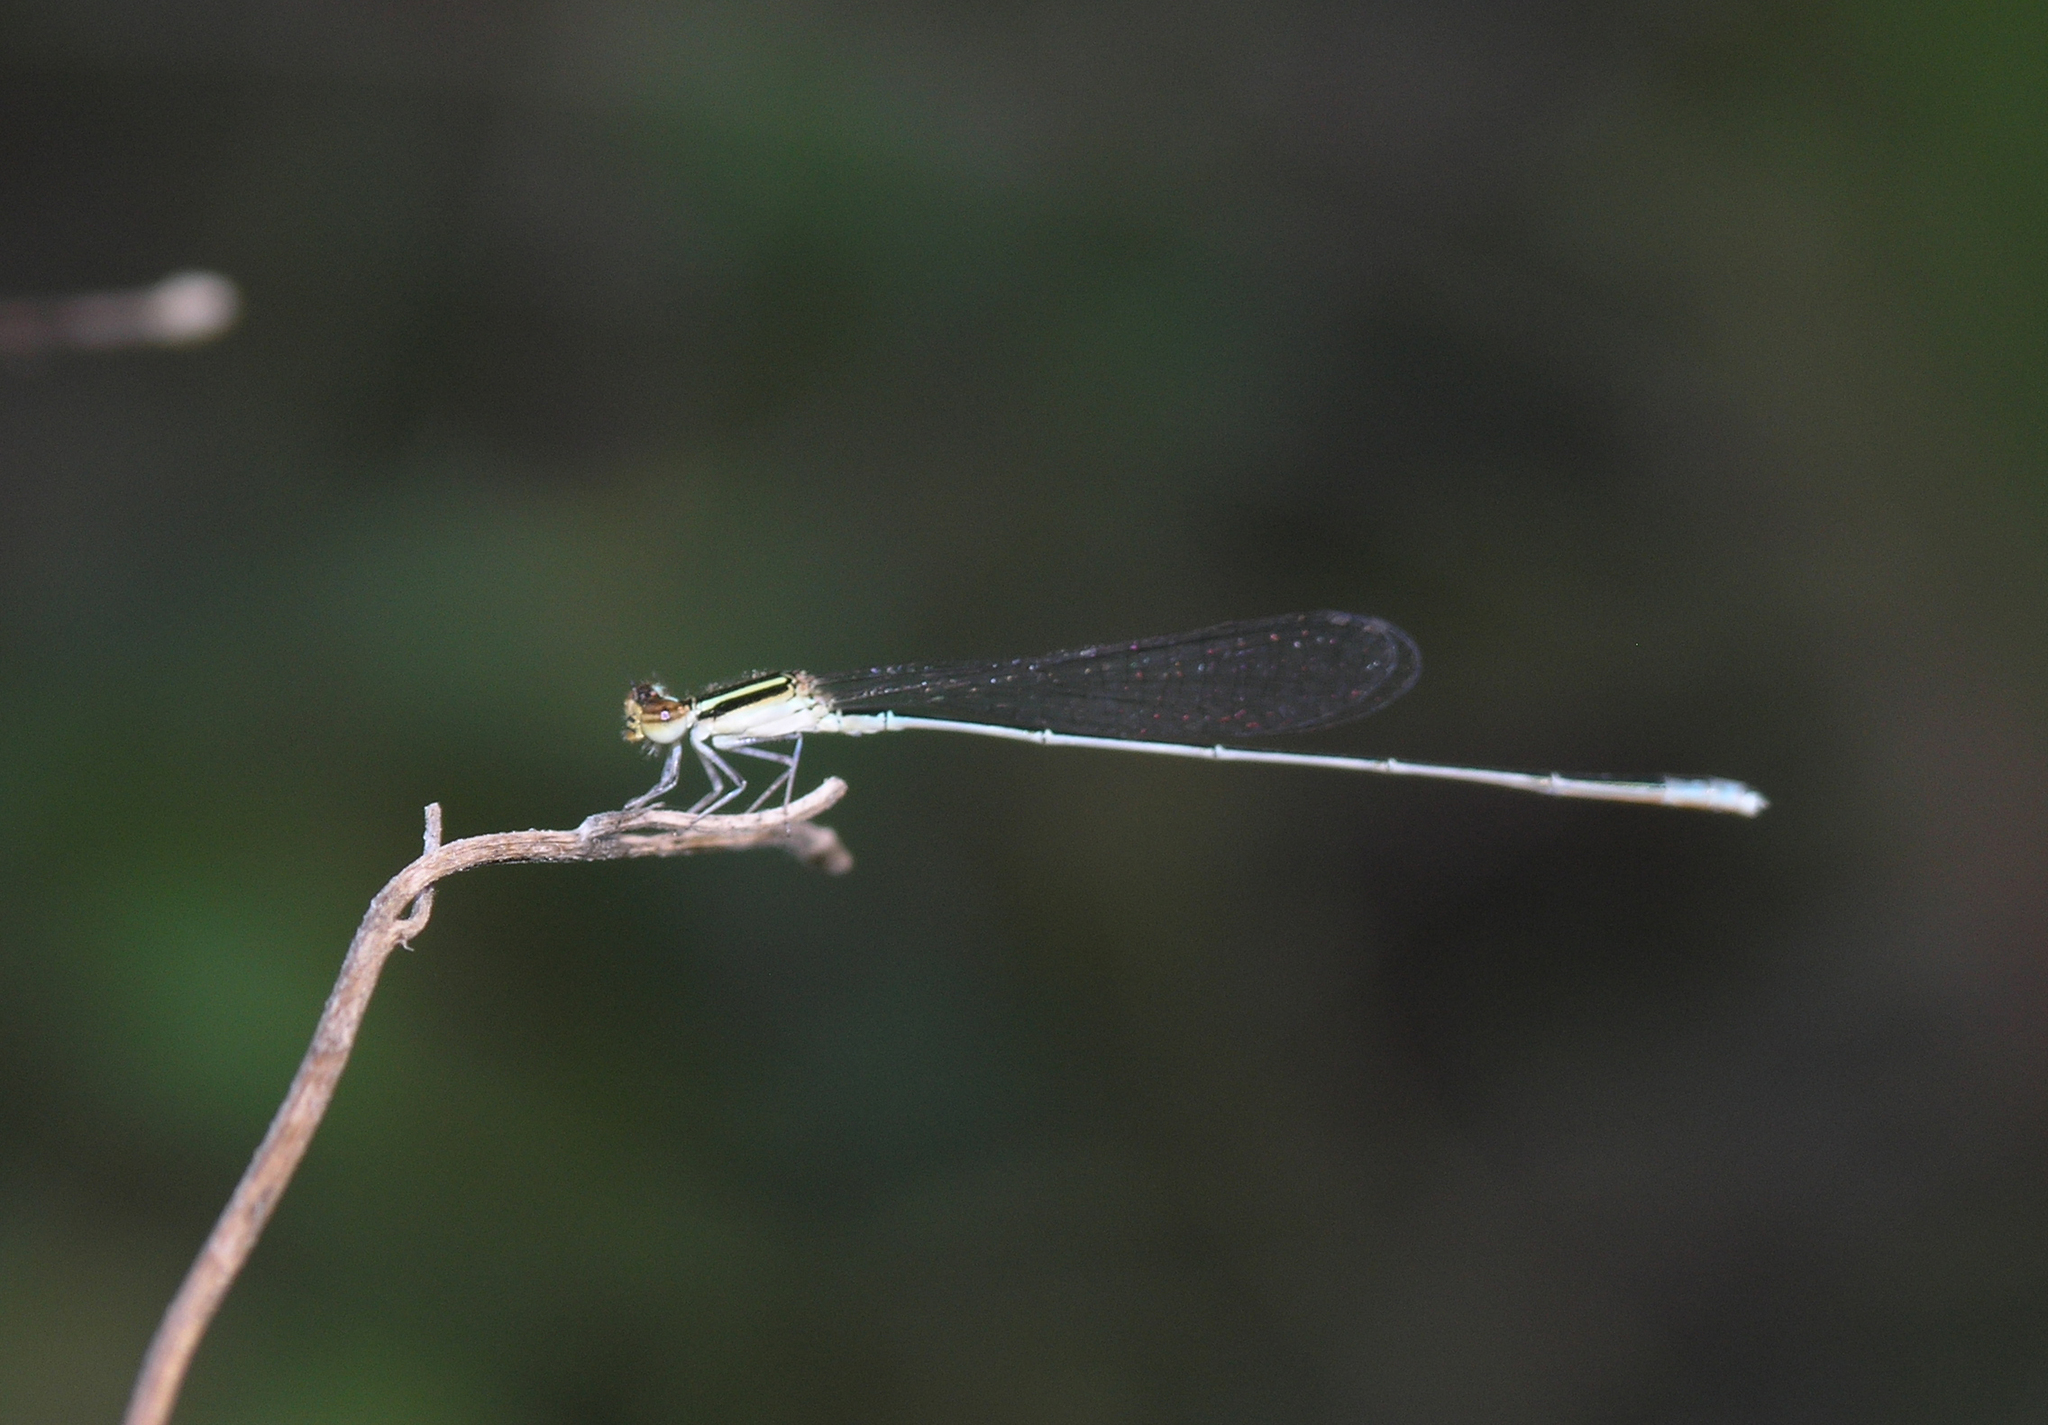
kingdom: Animalia
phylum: Arthropoda
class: Insecta
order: Odonata
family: Coenagrionidae
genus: Aciagrion
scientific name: Aciagrion borneense
